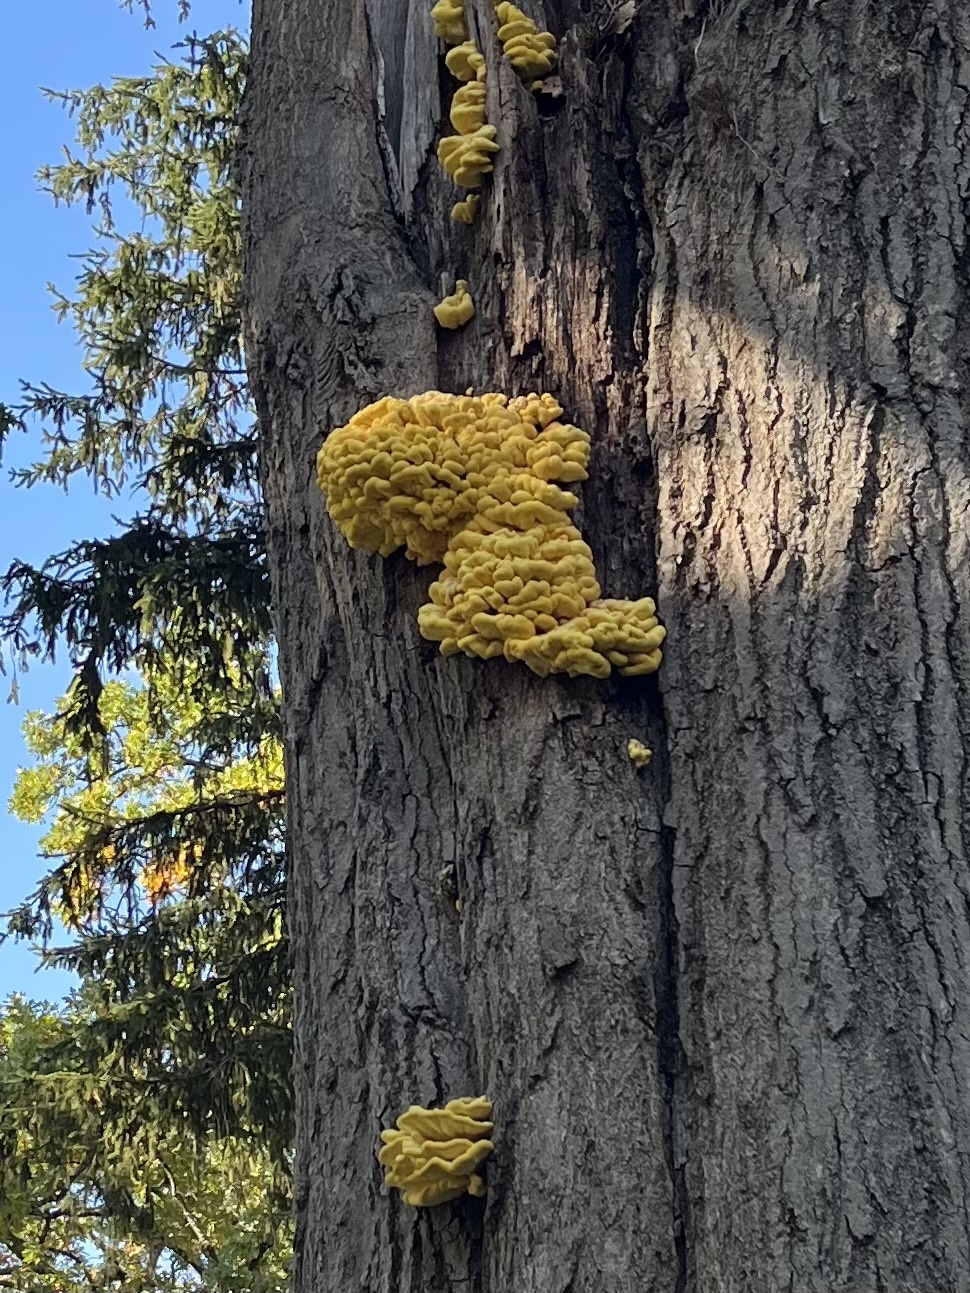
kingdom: Fungi
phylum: Basidiomycota
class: Agaricomycetes
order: Polyporales
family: Laetiporaceae
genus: Laetiporus
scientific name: Laetiporus sulphureus
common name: Chicken of the woods
